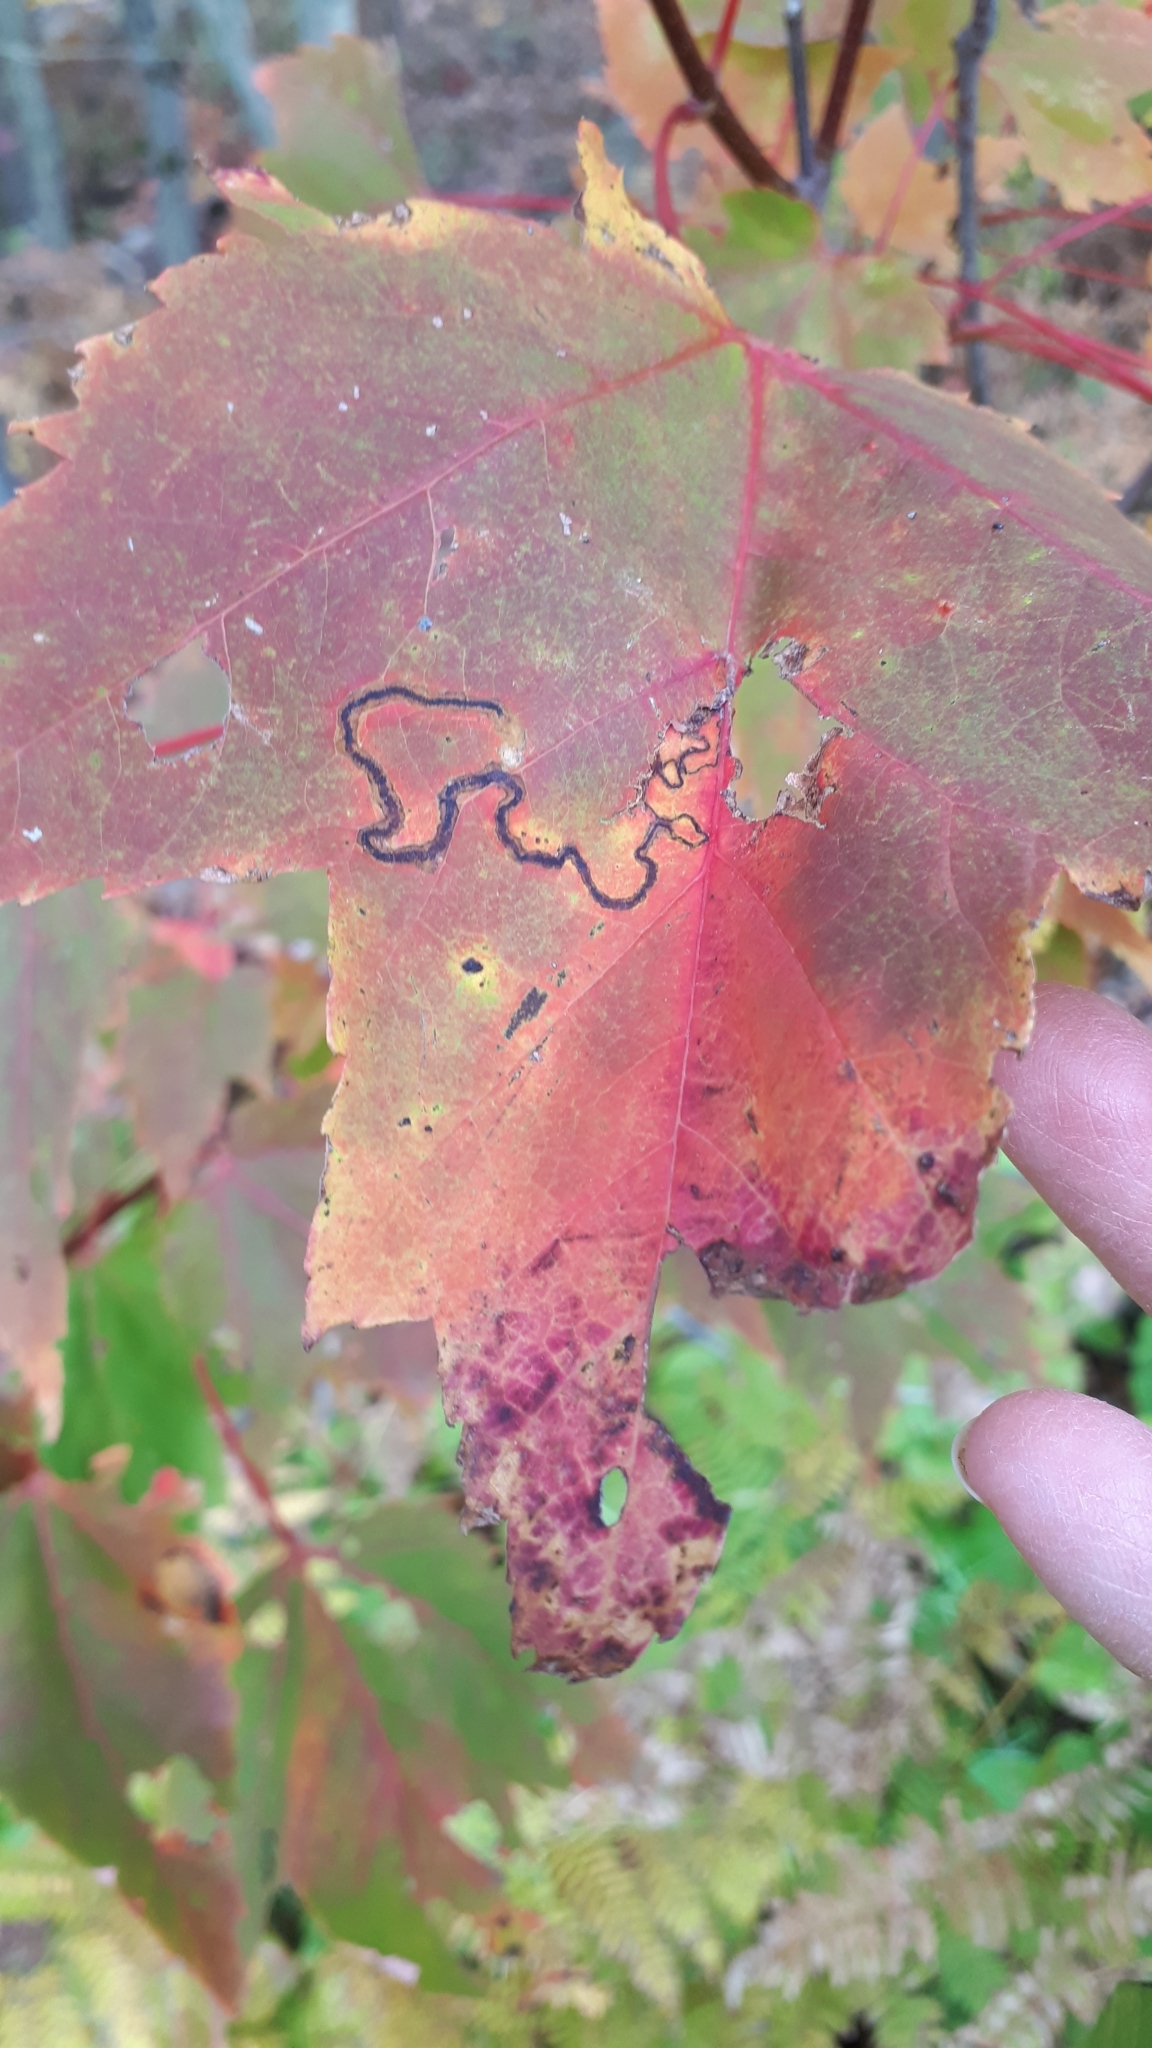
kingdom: Animalia
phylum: Arthropoda
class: Insecta
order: Lepidoptera
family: Nepticulidae
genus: Glaucolepis
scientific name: Glaucolepis saccharella
